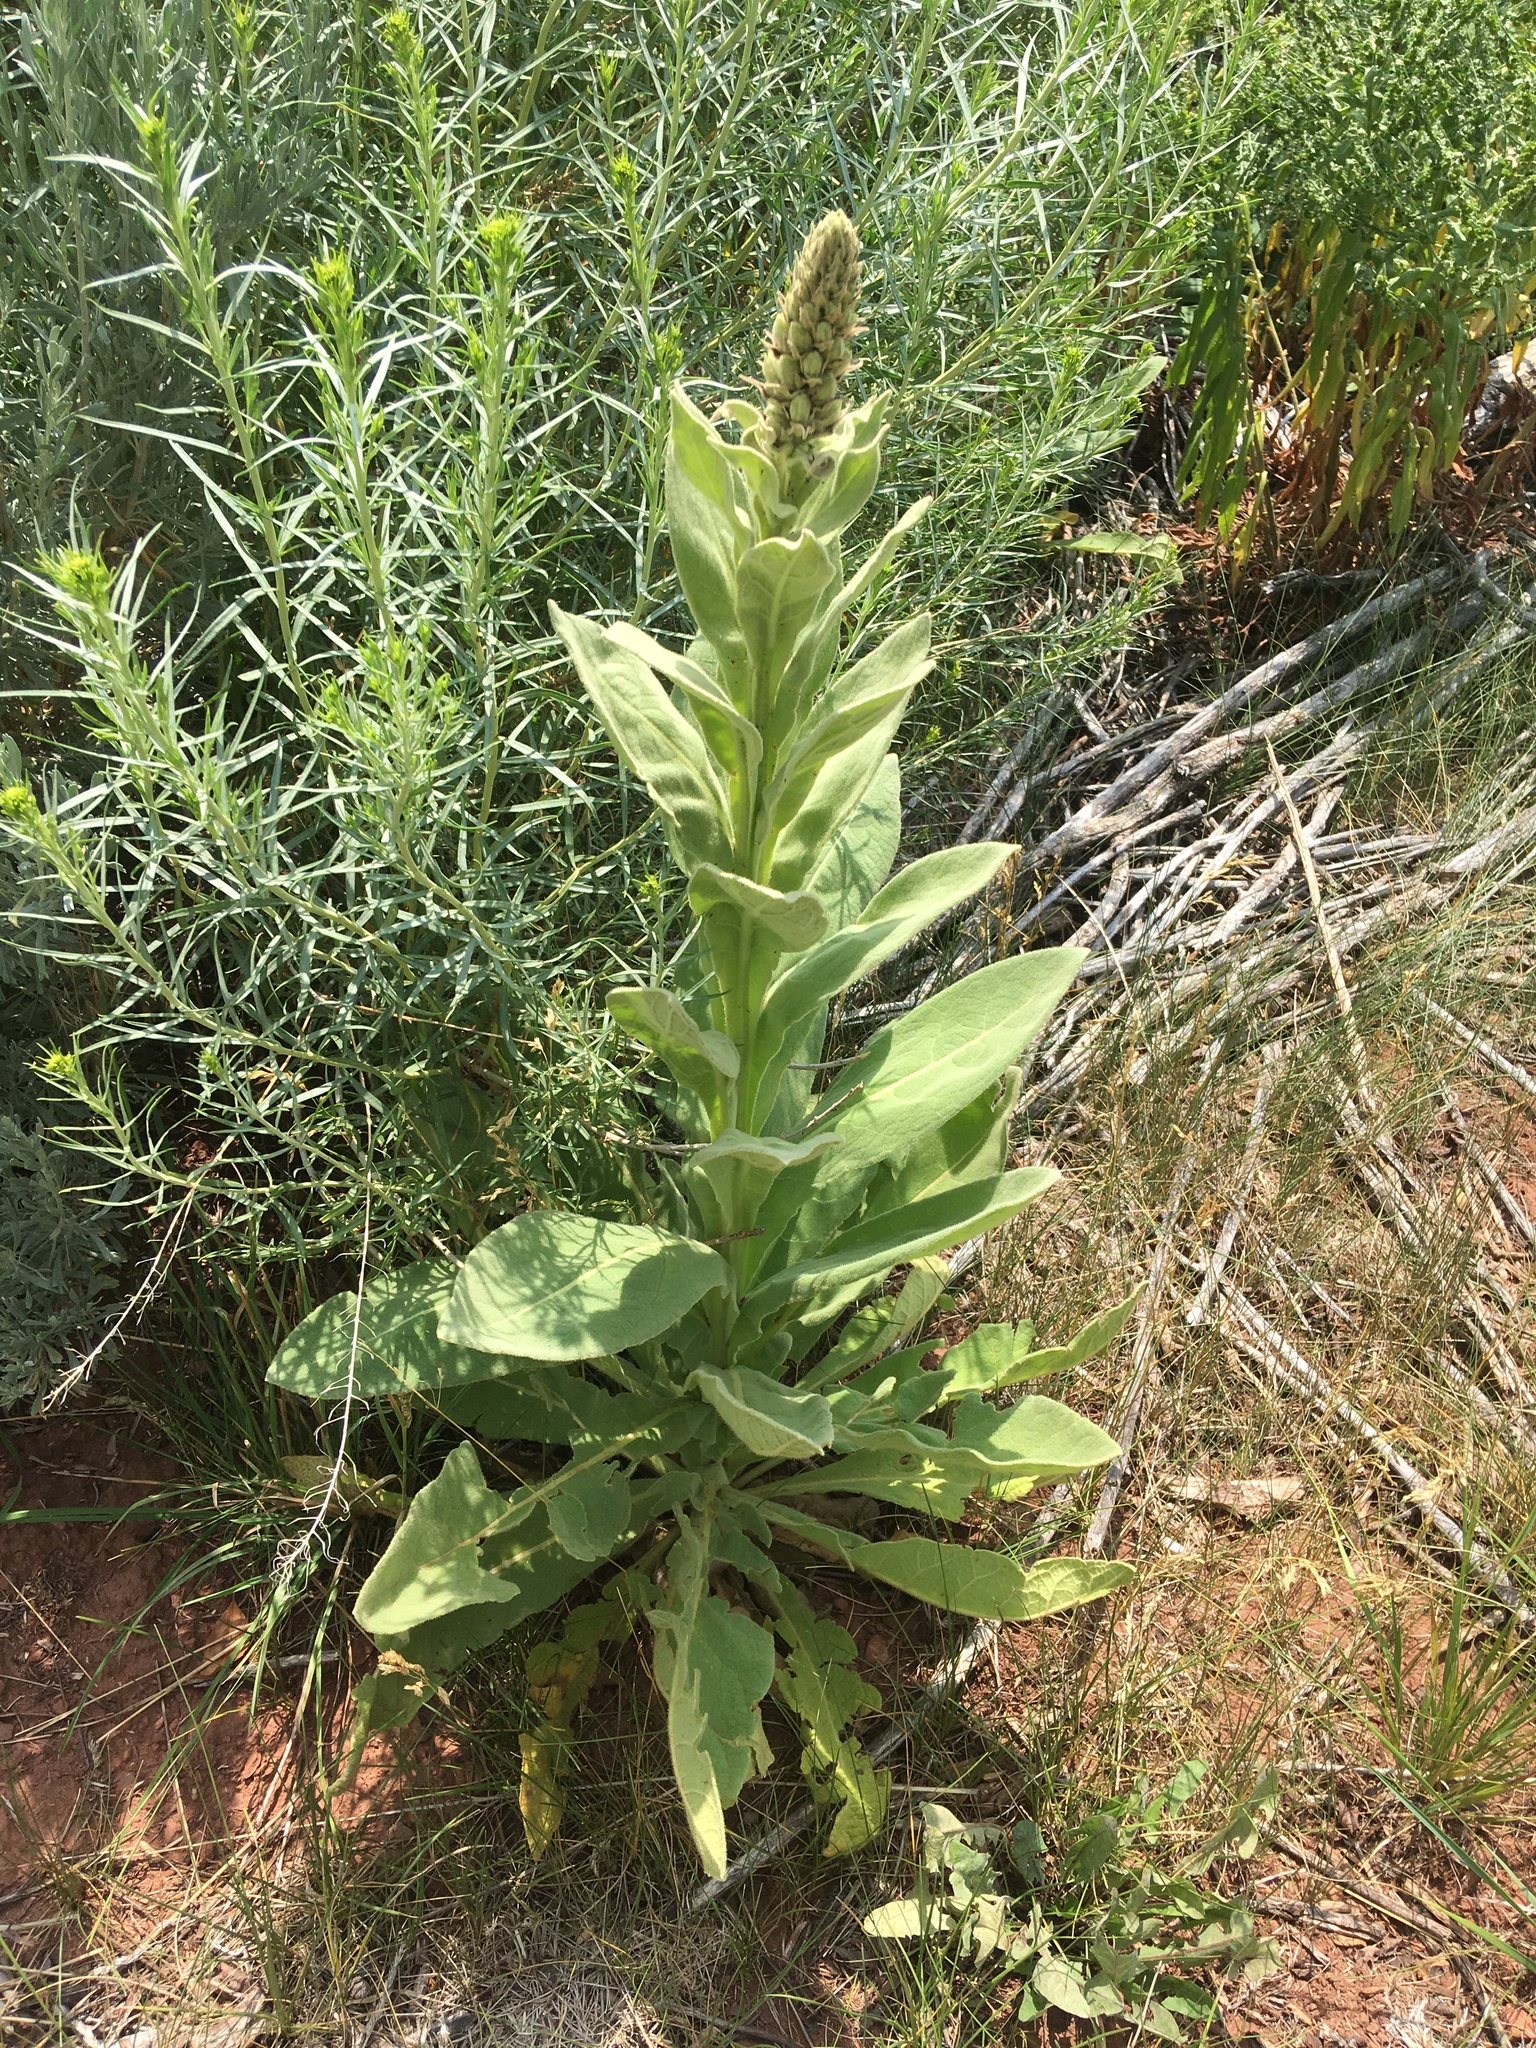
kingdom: Plantae
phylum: Tracheophyta
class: Magnoliopsida
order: Lamiales
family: Scrophulariaceae
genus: Verbascum
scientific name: Verbascum thapsus
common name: Common mullein
